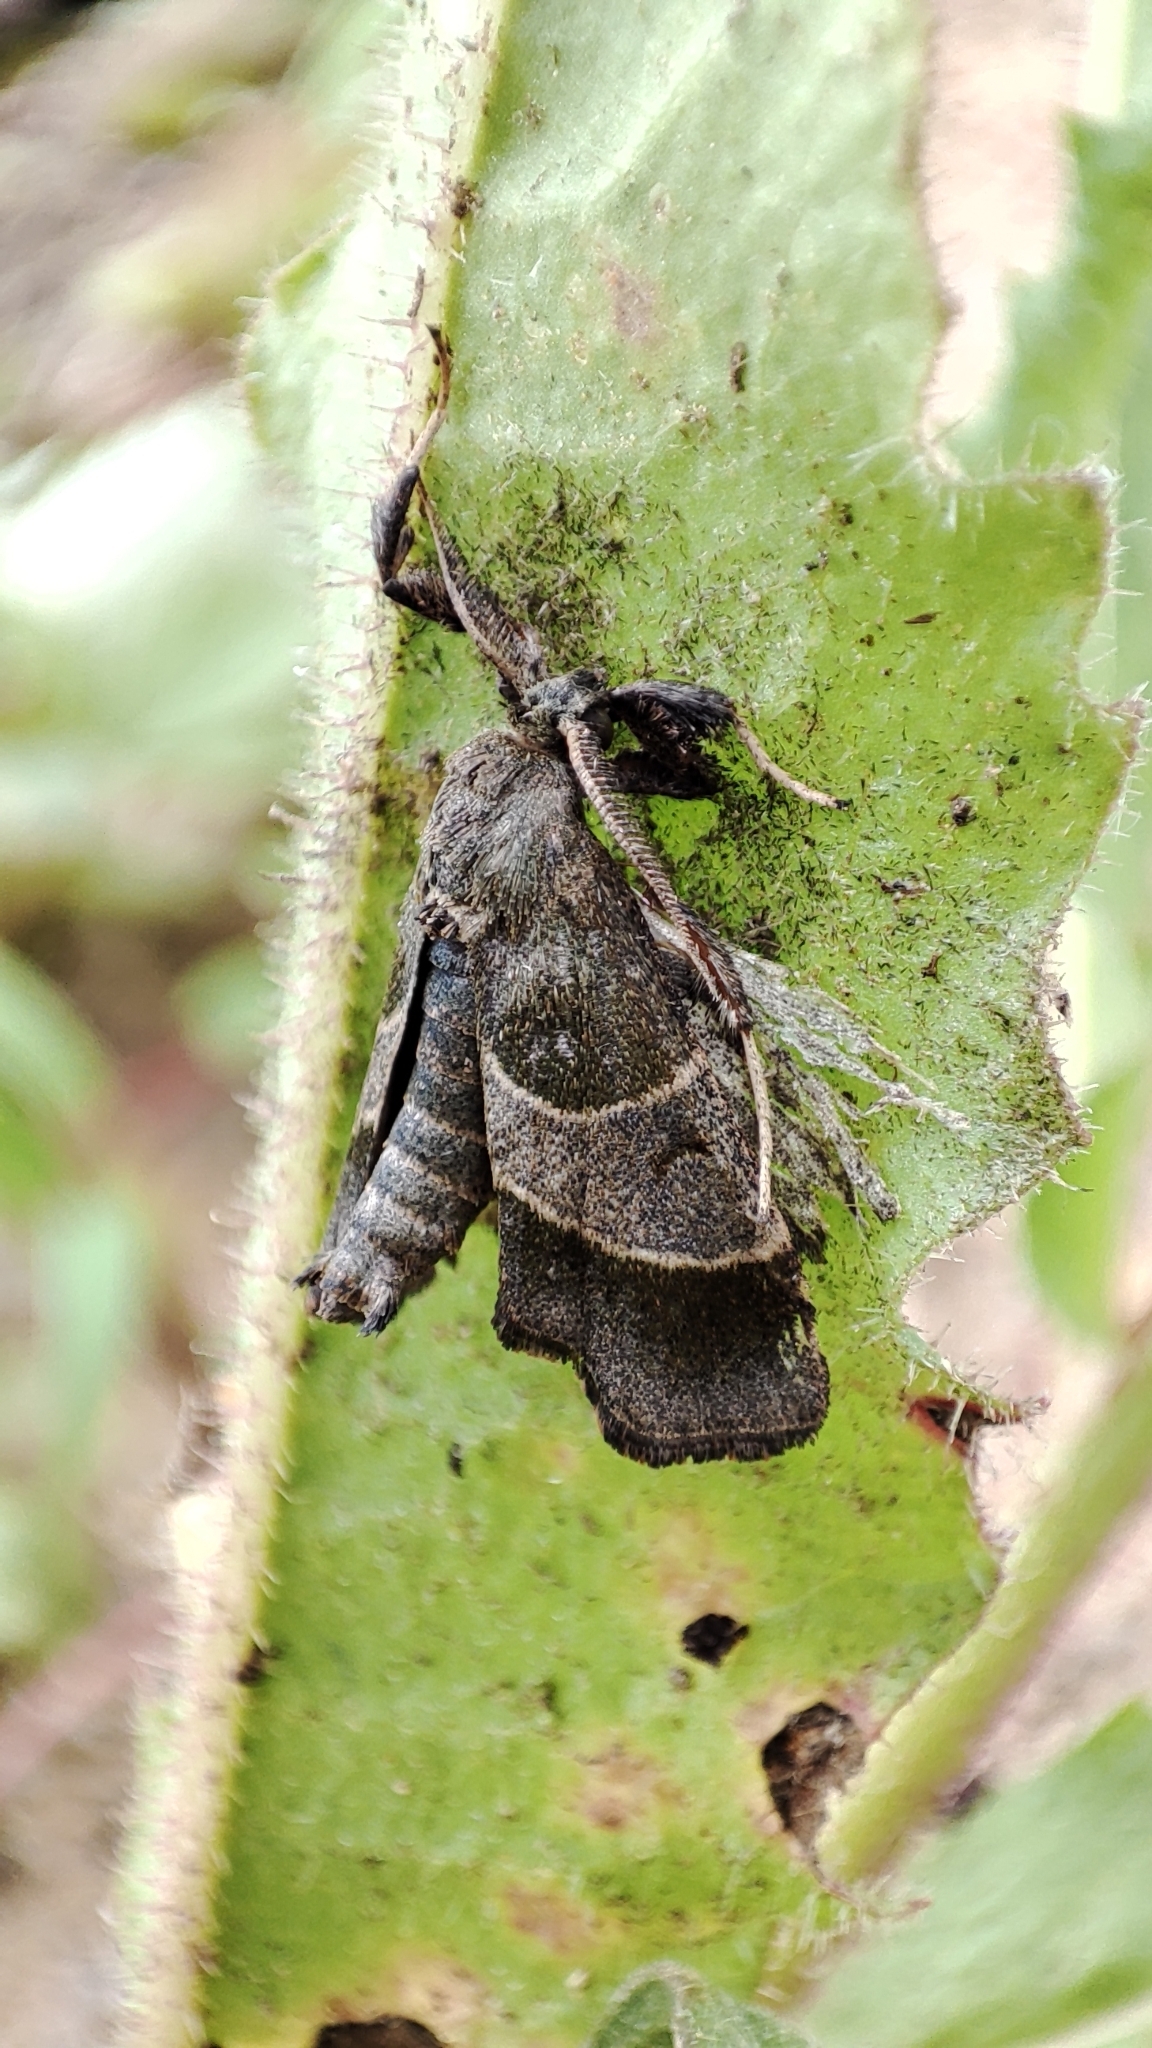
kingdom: Animalia
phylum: Arthropoda
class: Insecta
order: Lepidoptera
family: Pyralidae
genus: Sacada
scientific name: Sacada fasciata
